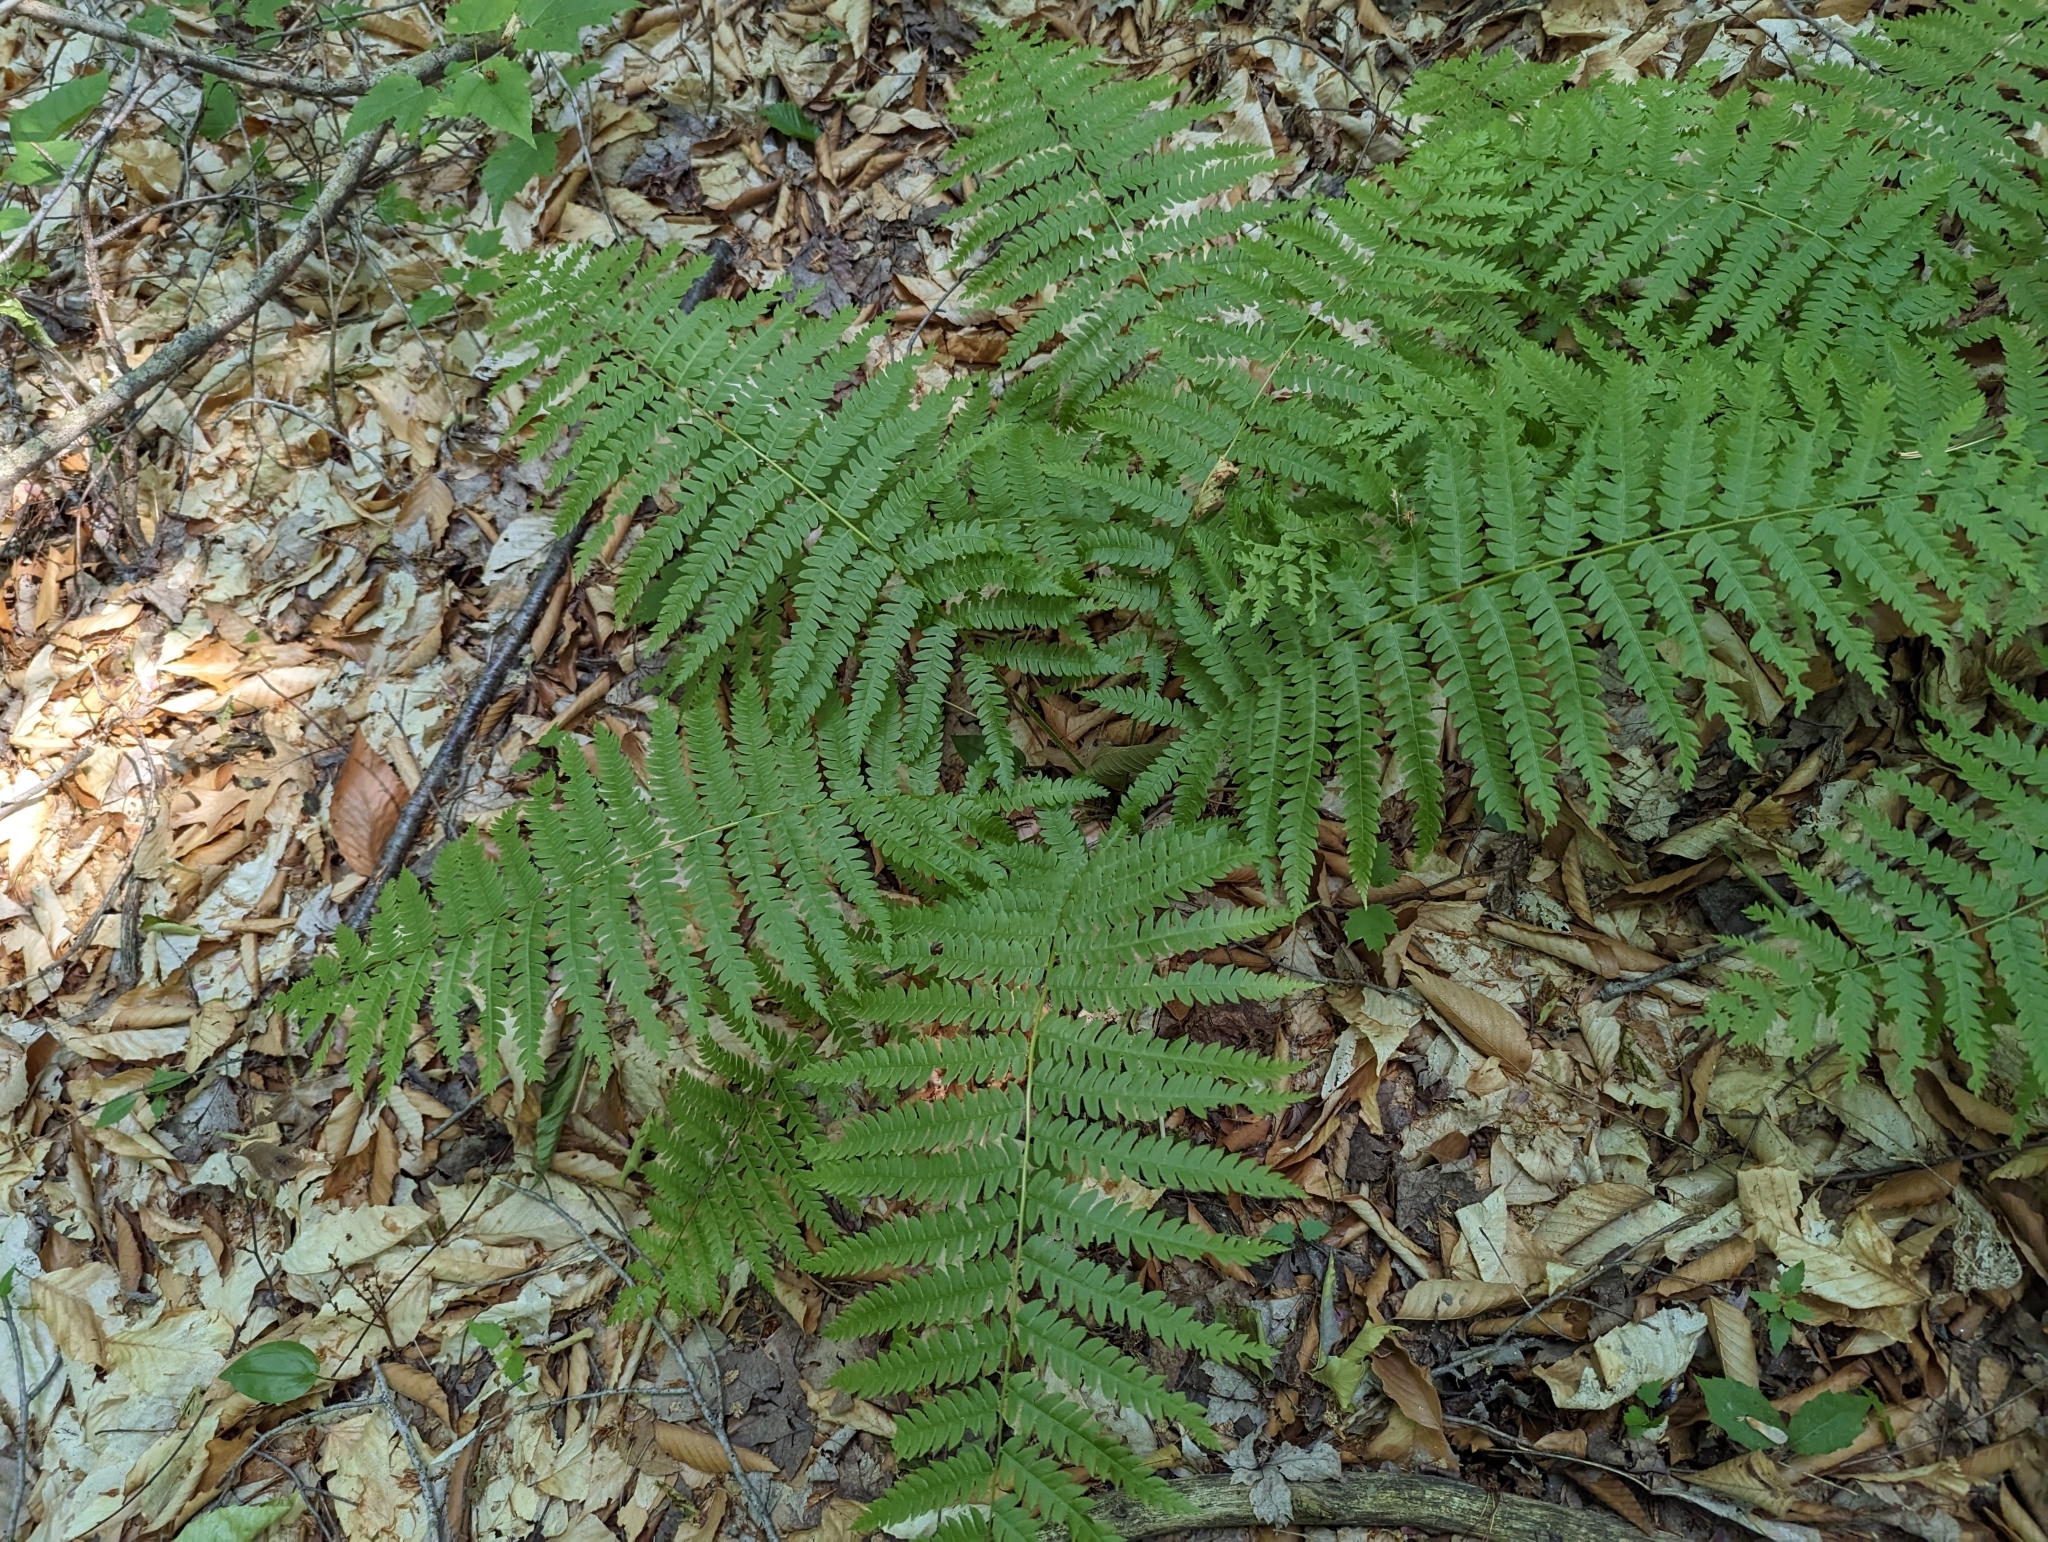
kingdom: Plantae
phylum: Tracheophyta
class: Polypodiopsida
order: Osmundales
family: Osmundaceae
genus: Osmundastrum
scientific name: Osmundastrum cinnamomeum
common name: Cinnamon fern
